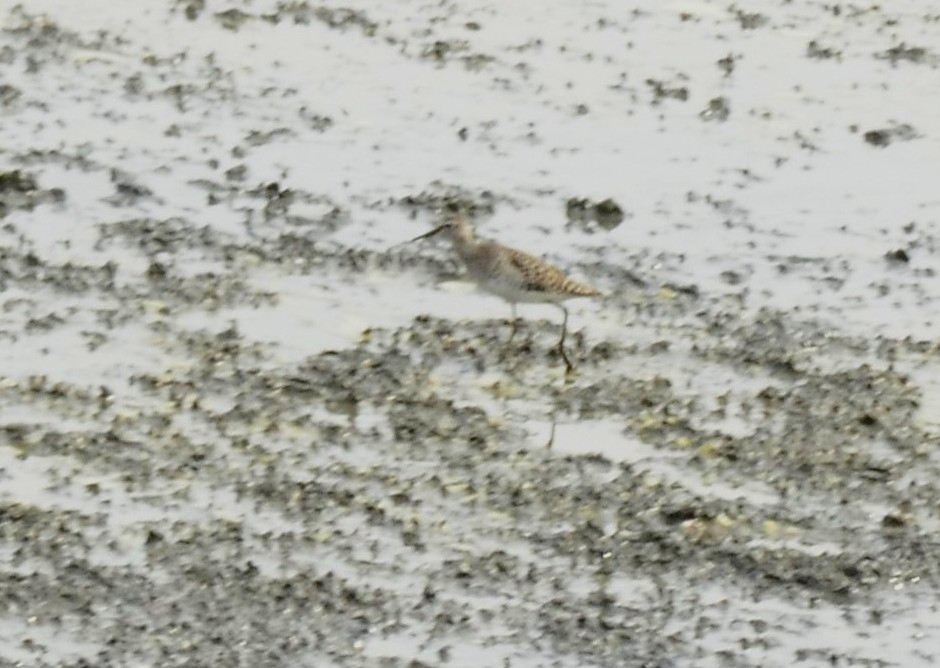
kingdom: Animalia
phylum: Chordata
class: Aves
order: Charadriiformes
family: Scolopacidae
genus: Tringa
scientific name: Tringa glareola
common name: Wood sandpiper
